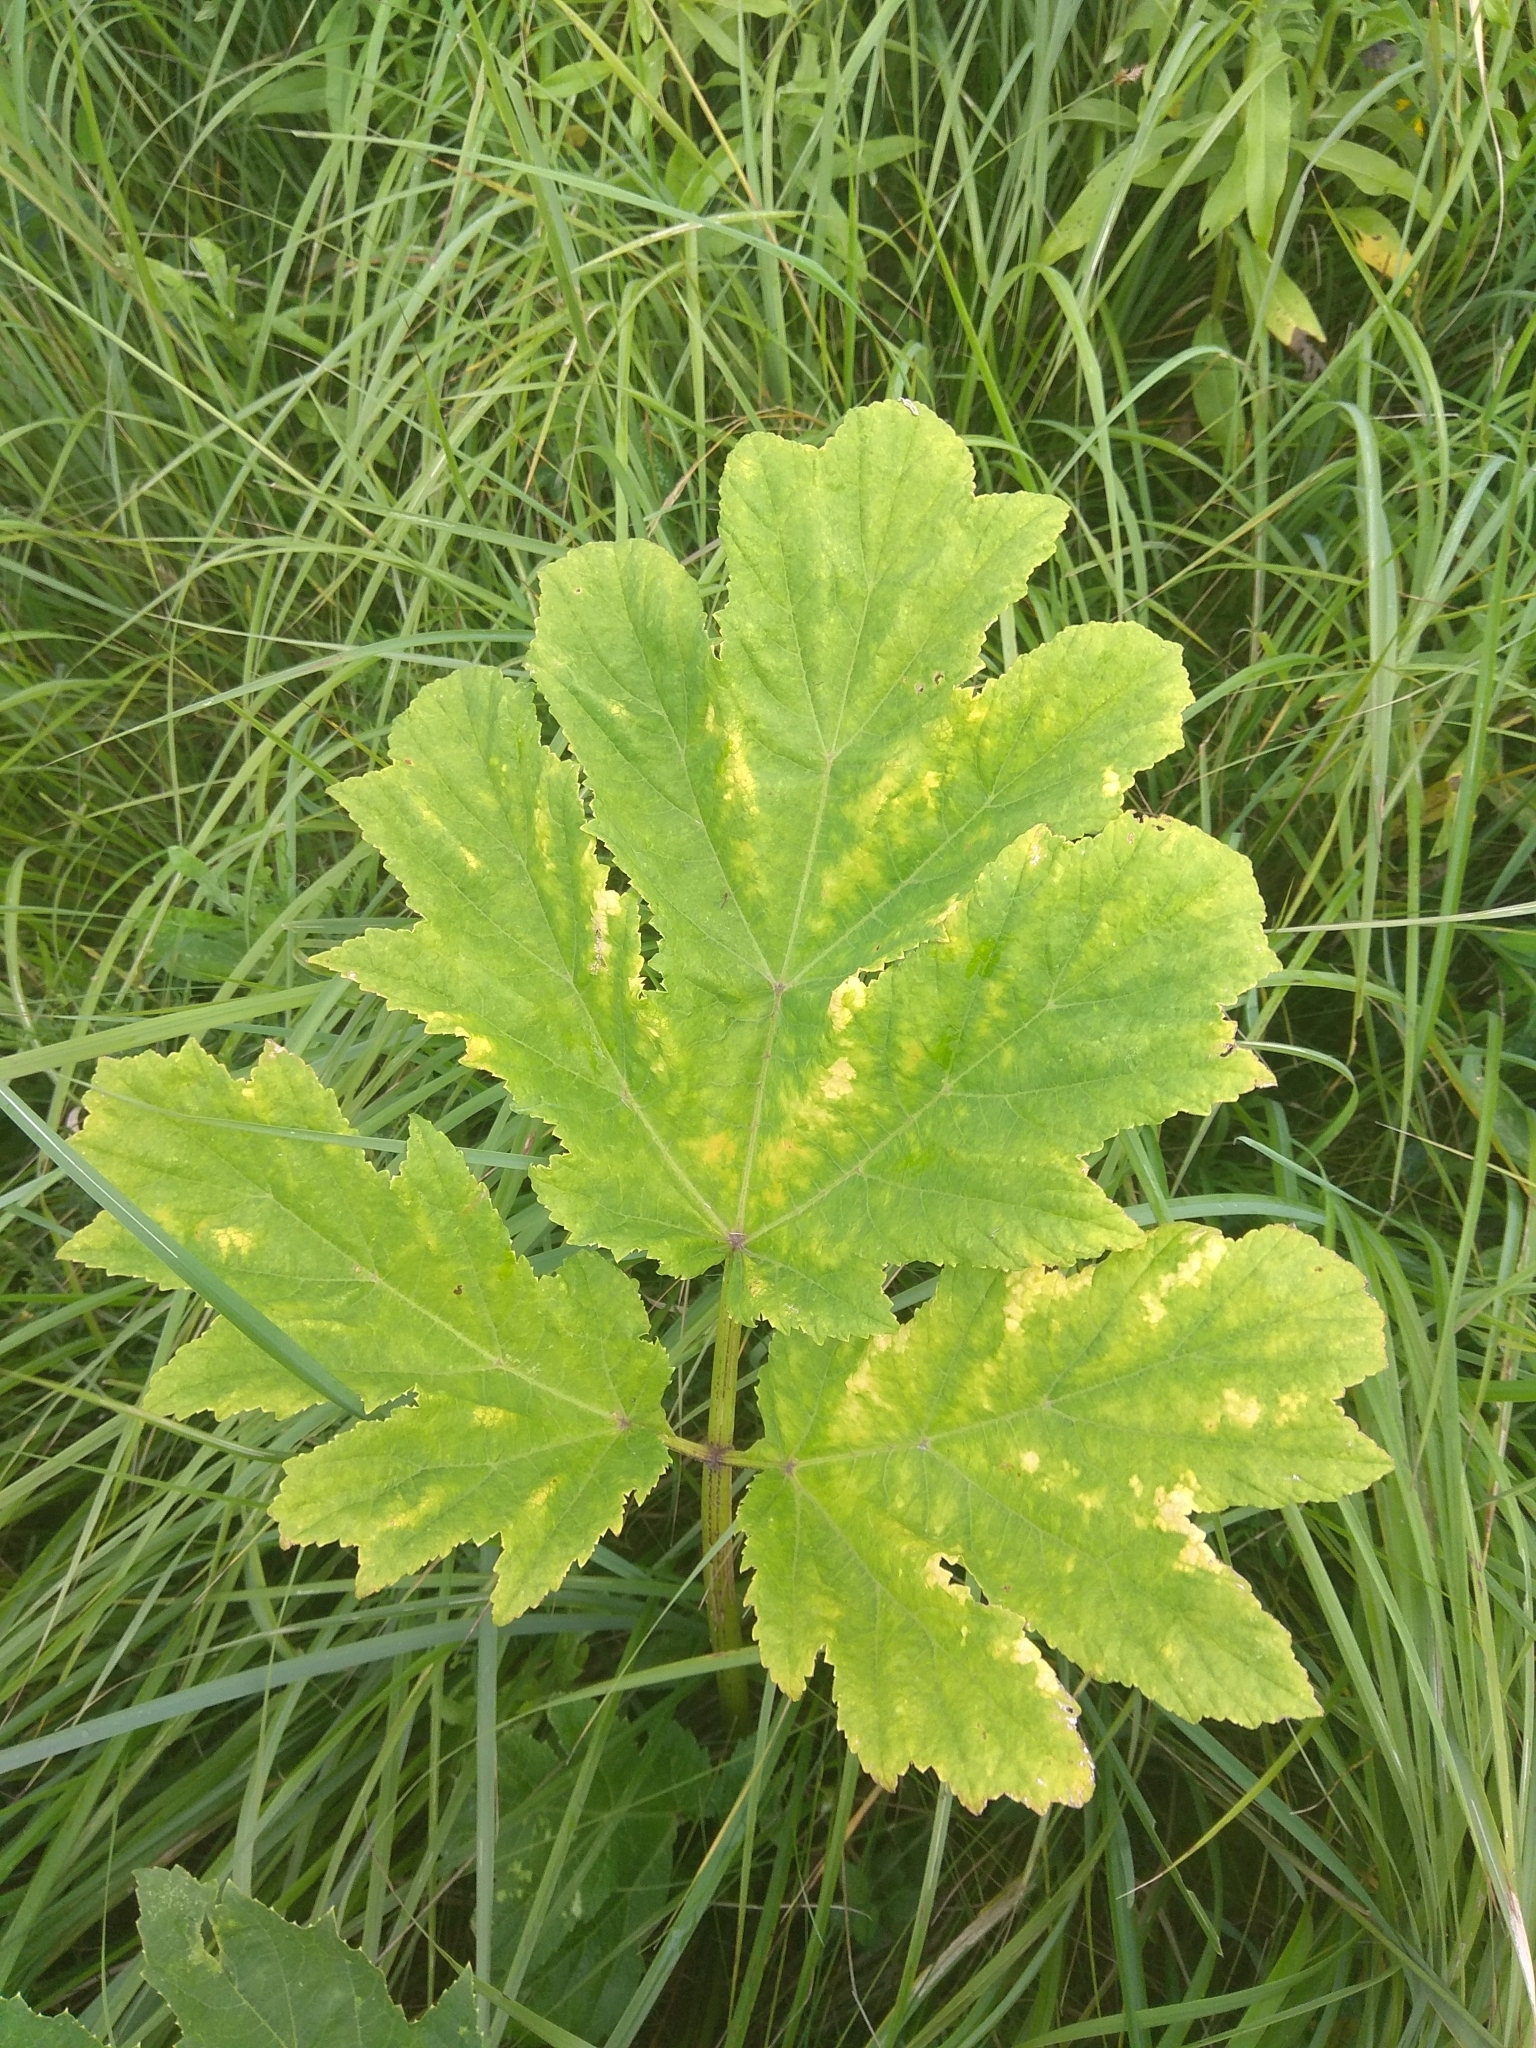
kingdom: Plantae
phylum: Tracheophyta
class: Magnoliopsida
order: Apiales
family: Apiaceae
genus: Heracleum
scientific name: Heracleum sosnowskyi
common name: Sosnowsky's hogweed
